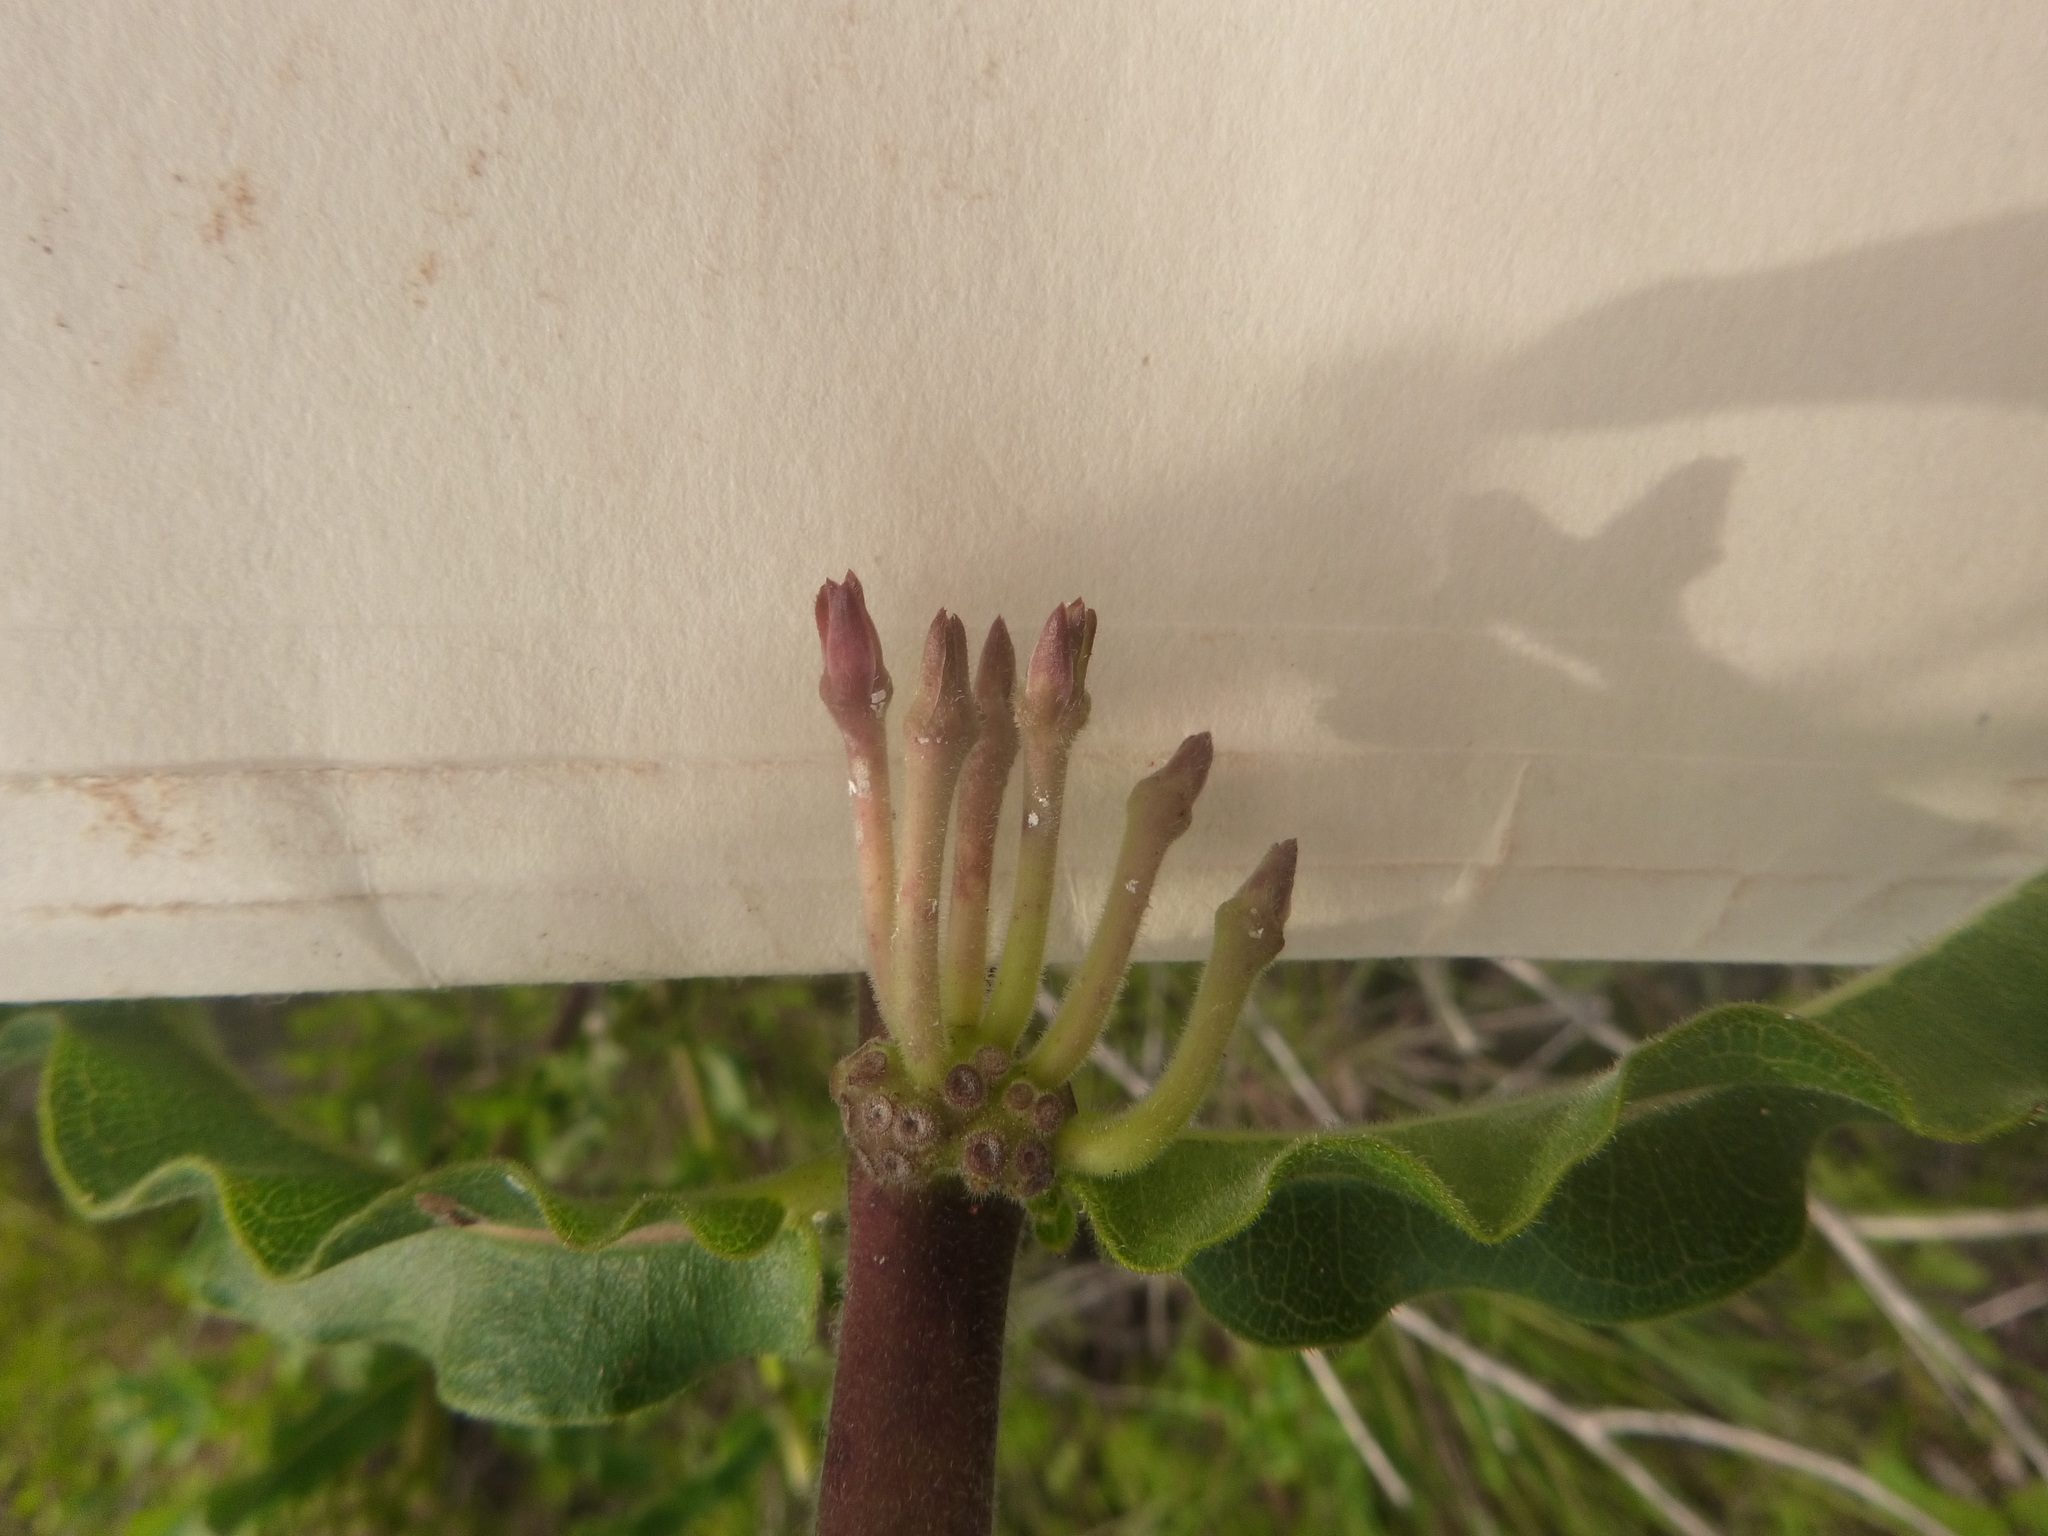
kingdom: Plantae
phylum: Tracheophyta
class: Magnoliopsida
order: Gentianales
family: Apocynaceae
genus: Asclepias
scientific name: Asclepias obovata
